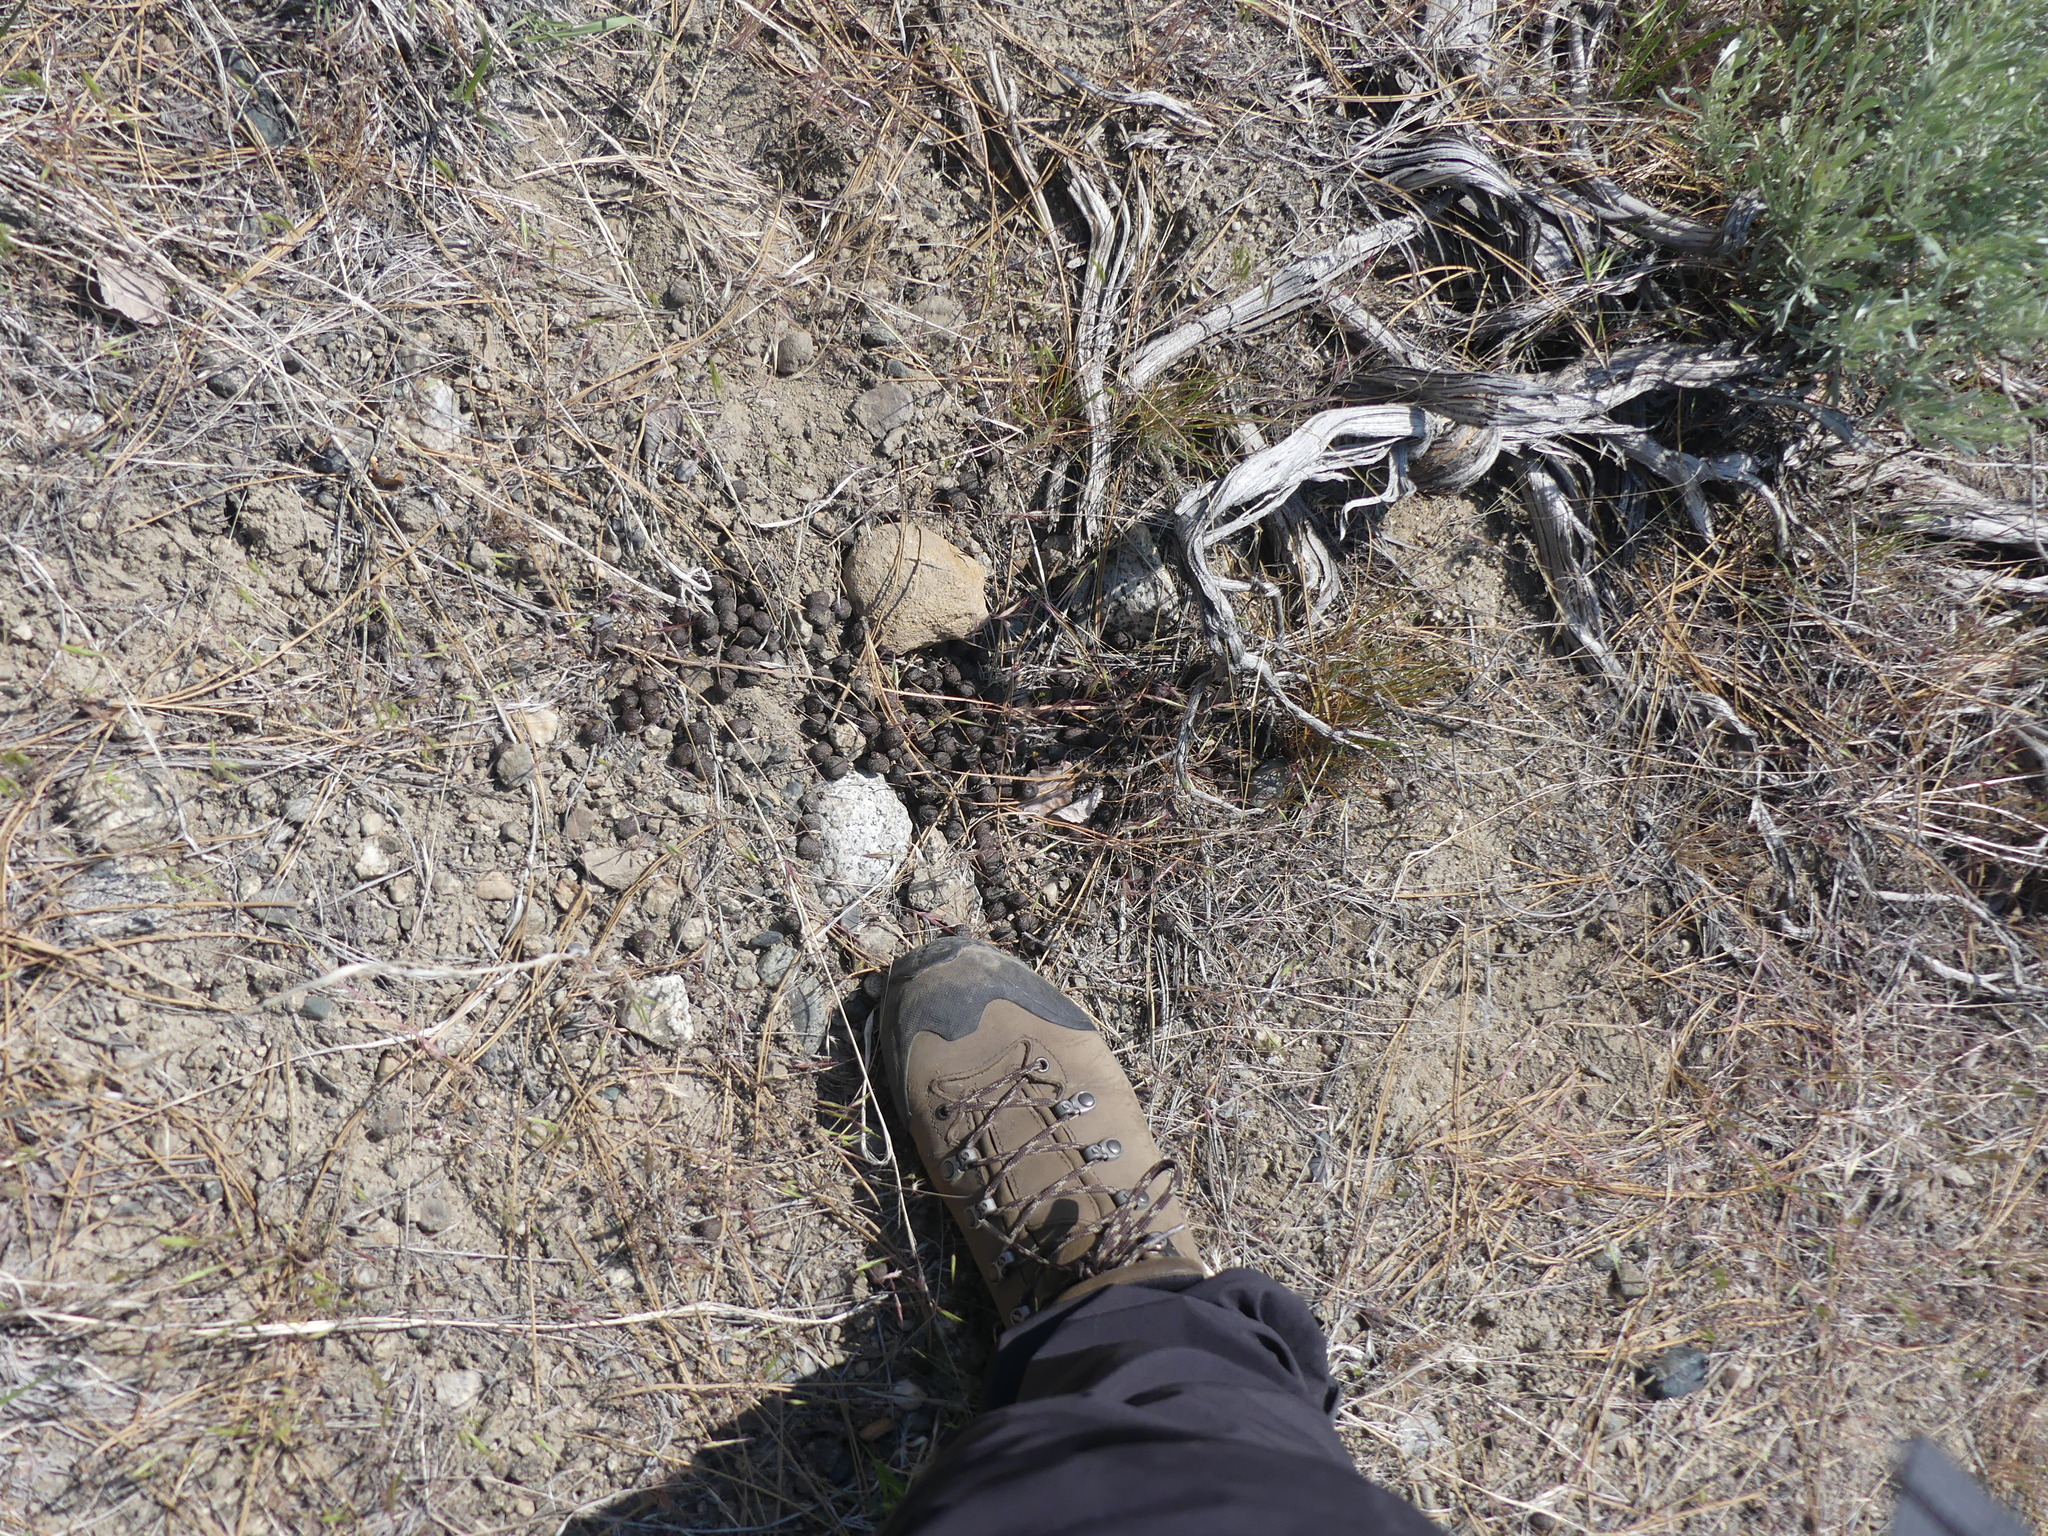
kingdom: Animalia
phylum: Chordata
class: Mammalia
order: Artiodactyla
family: Cervidae
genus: Odocoileus
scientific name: Odocoileus hemionus
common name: Mule deer
